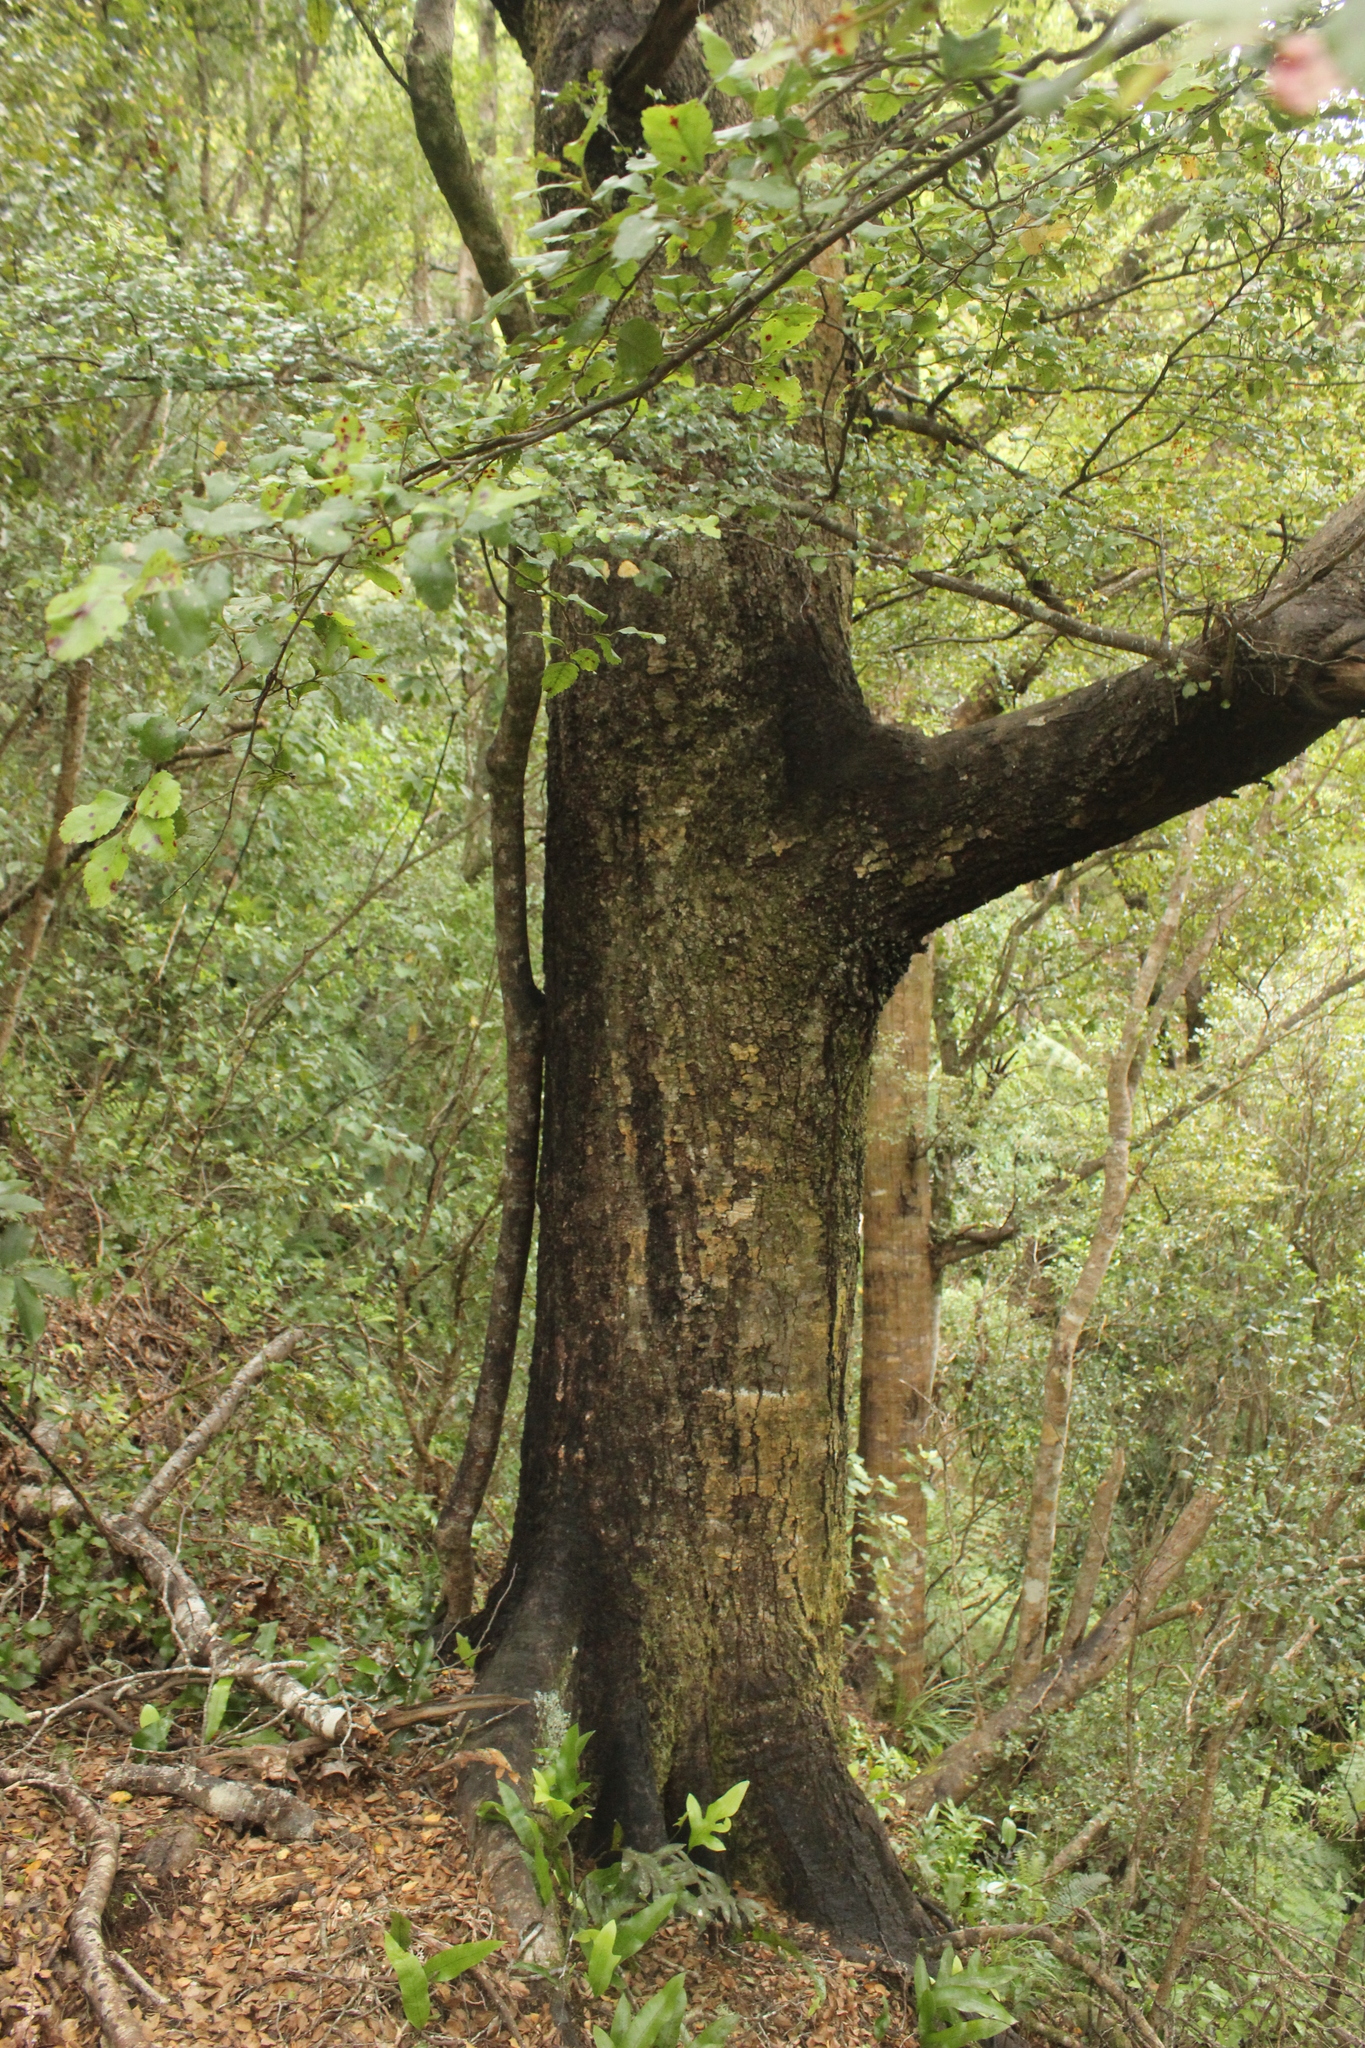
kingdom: Plantae
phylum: Tracheophyta
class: Magnoliopsida
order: Fagales
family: Nothofagaceae
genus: Nothofagus
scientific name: Nothofagus truncata
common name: Hard beech
